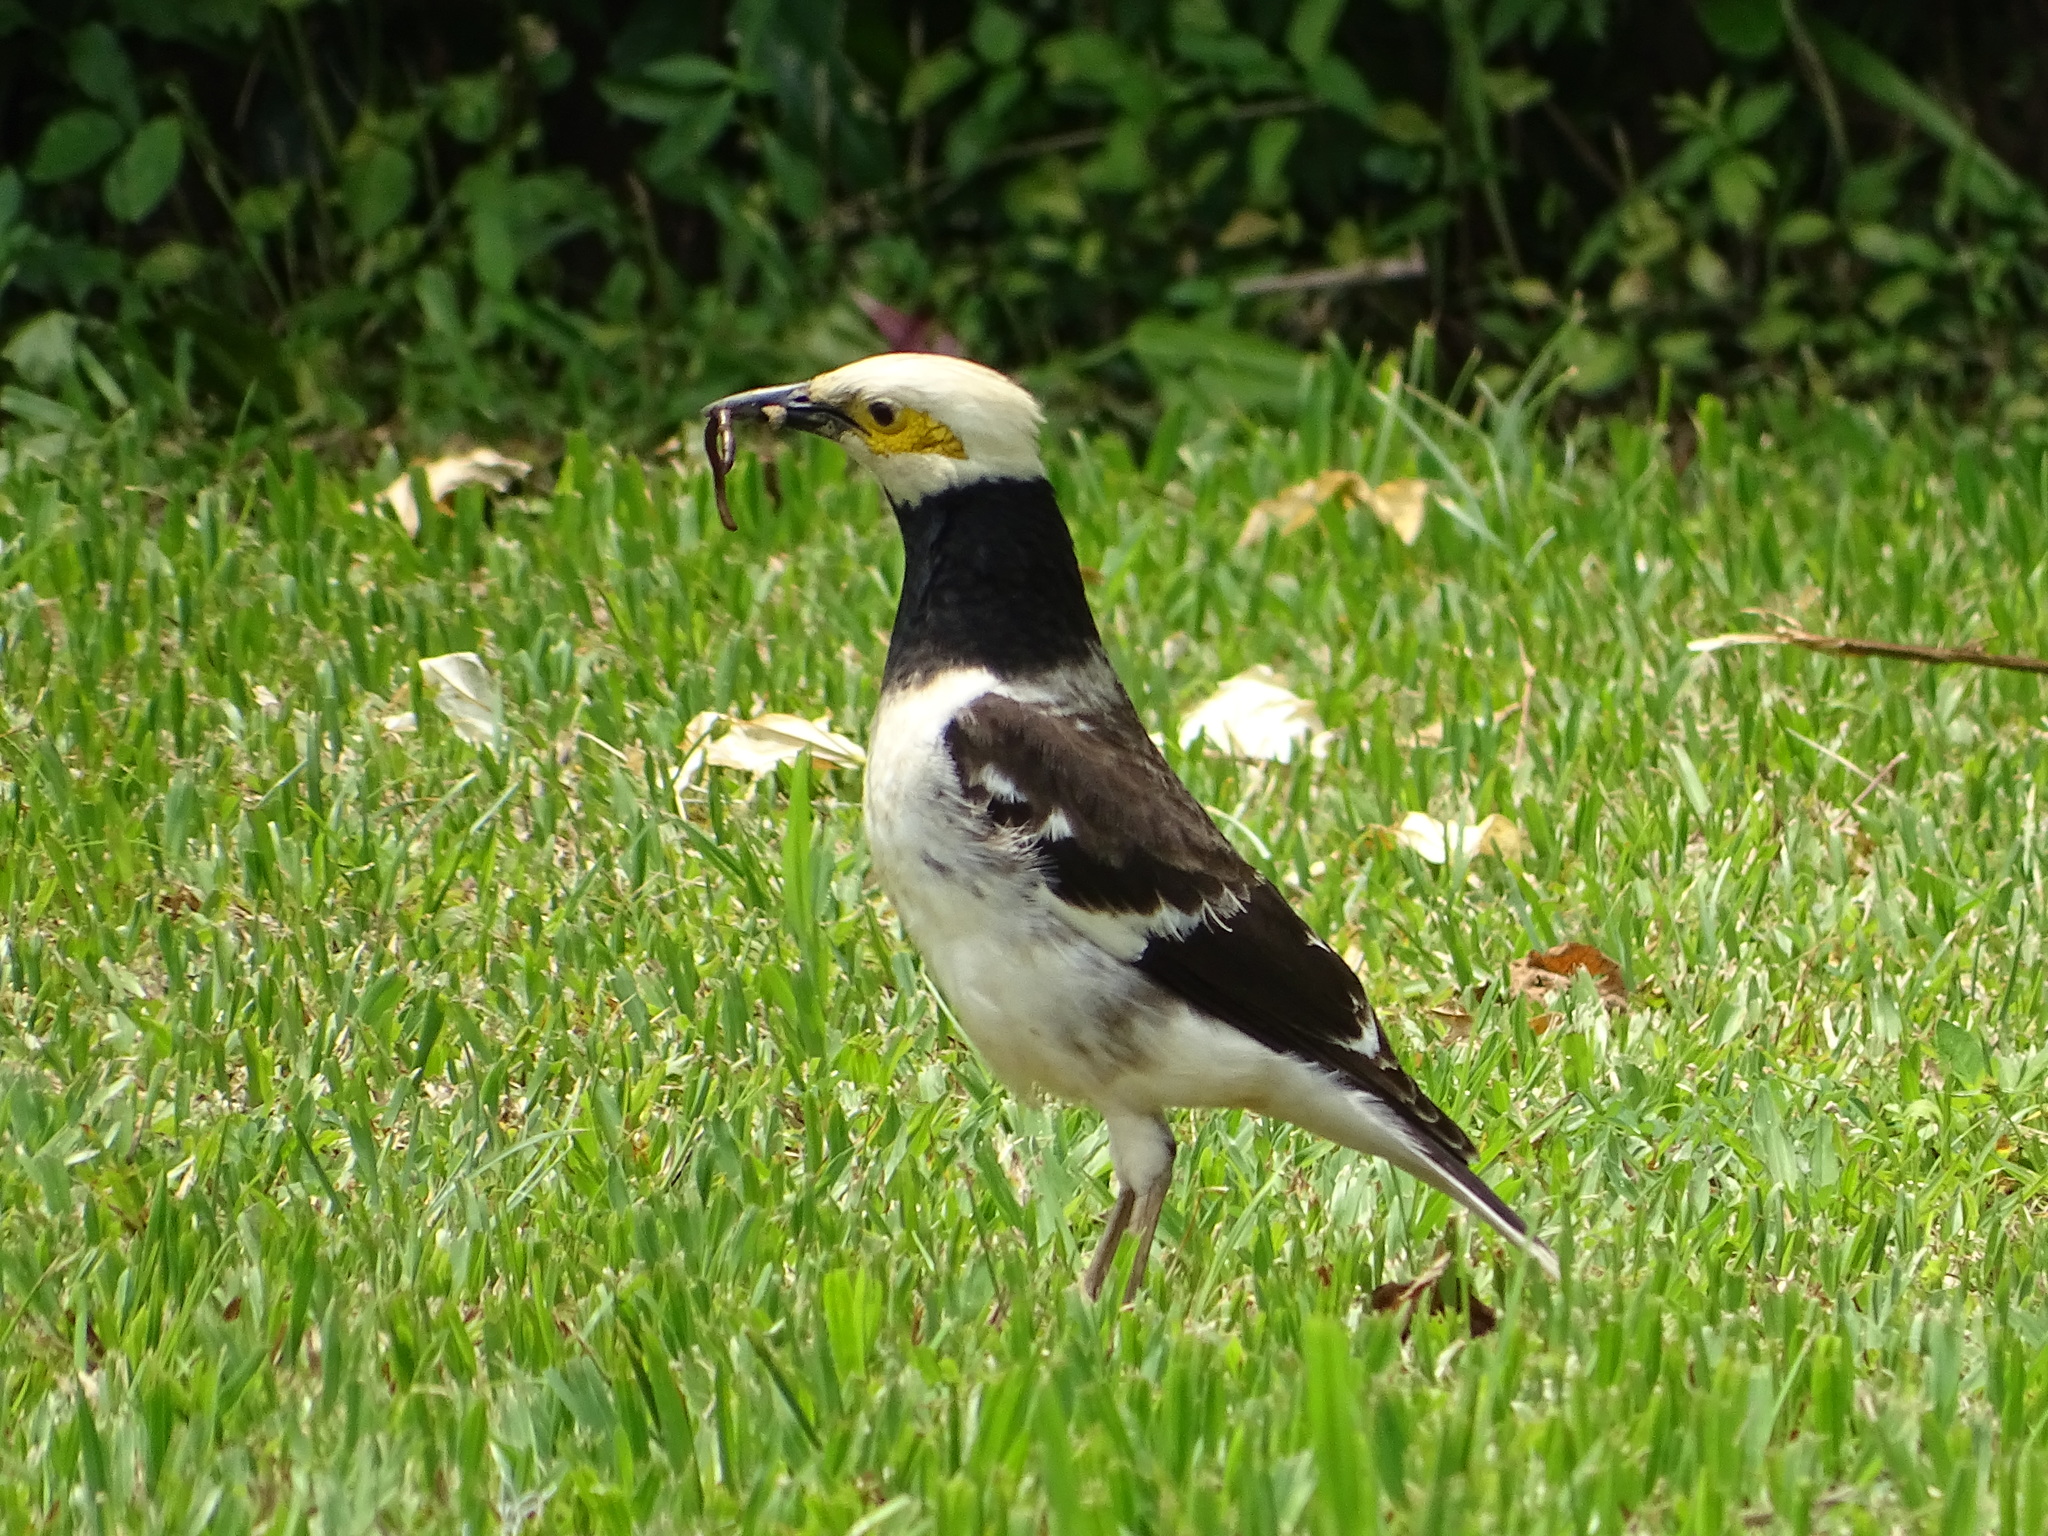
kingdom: Animalia
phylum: Chordata
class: Aves
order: Passeriformes
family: Sturnidae
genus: Gracupica
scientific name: Gracupica nigricollis
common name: Black-collared starling
